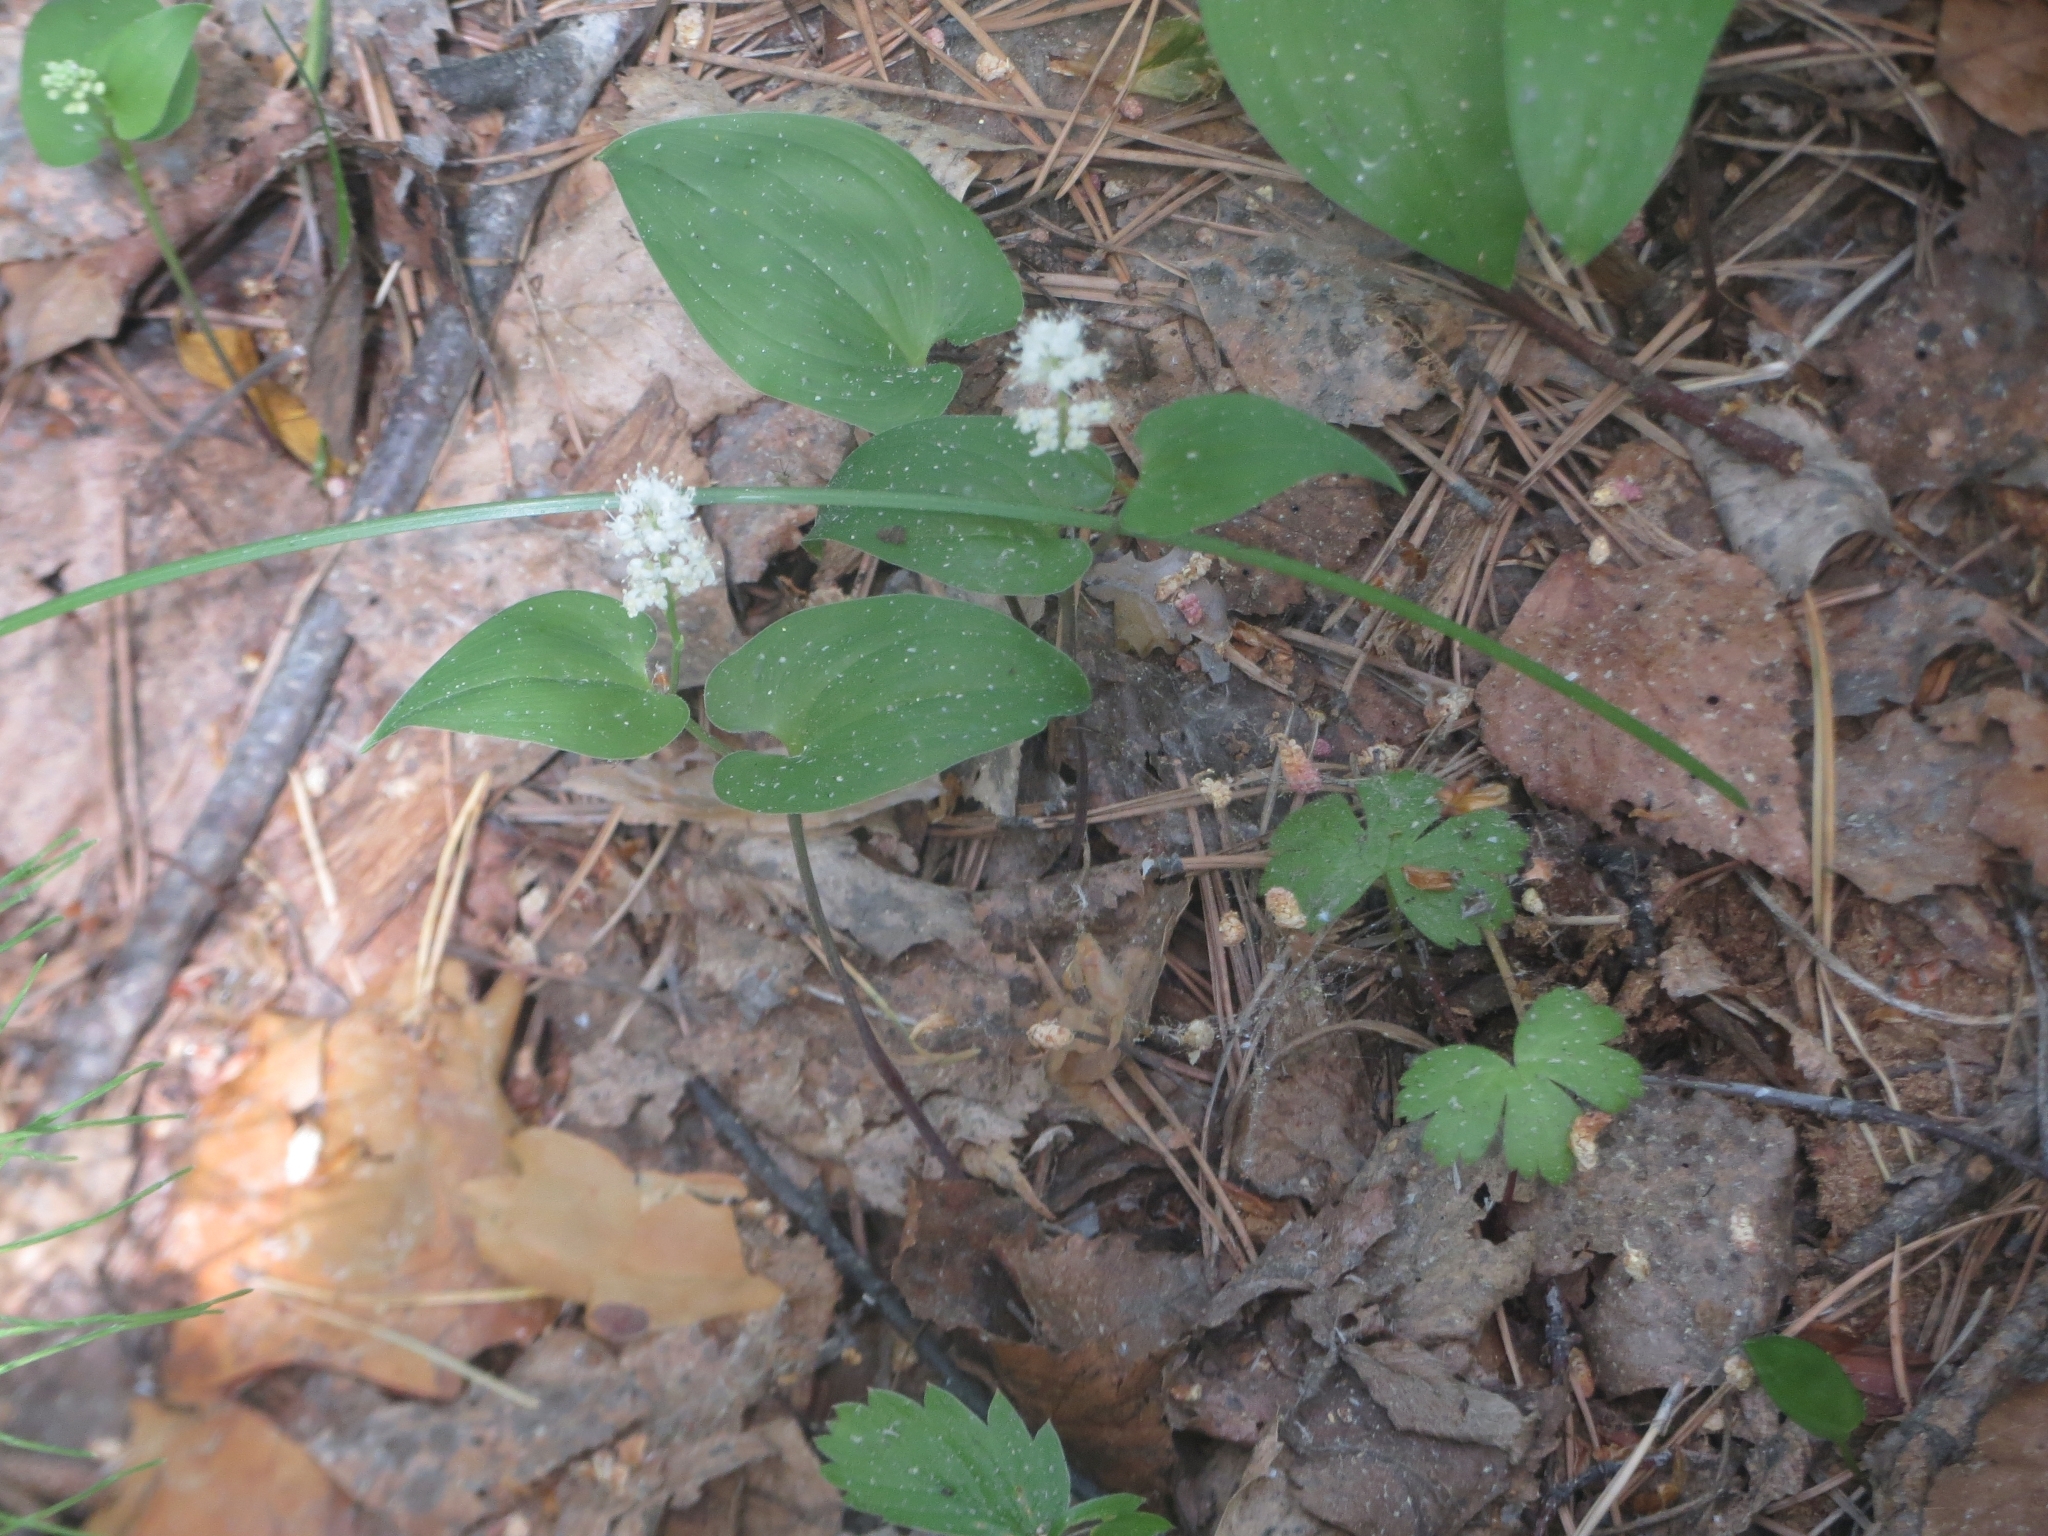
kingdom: Plantae
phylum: Tracheophyta
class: Liliopsida
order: Asparagales
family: Asparagaceae
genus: Maianthemum
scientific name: Maianthemum bifolium
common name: May lily
